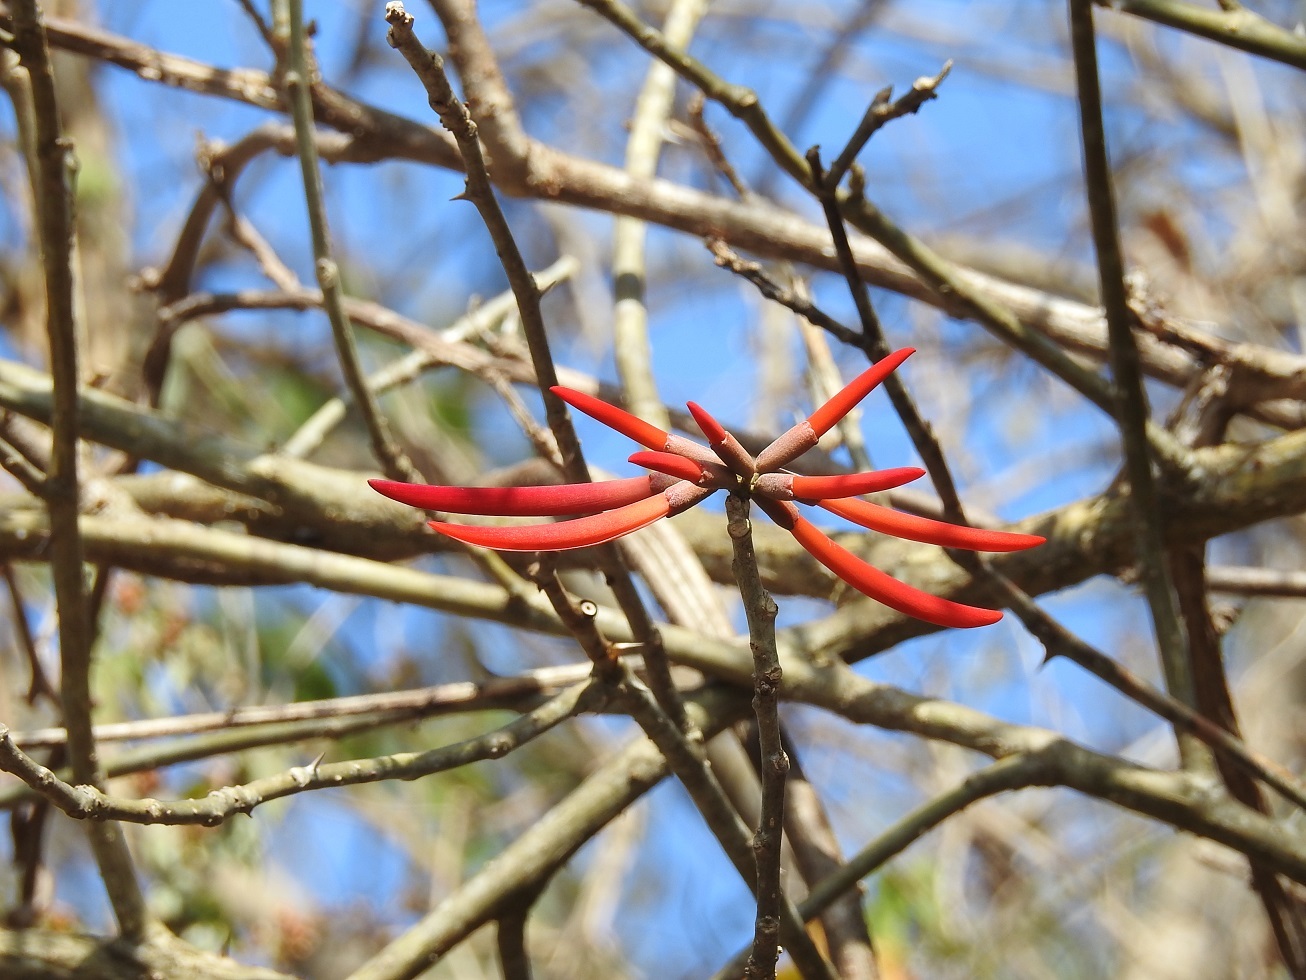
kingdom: Plantae
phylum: Tracheophyta
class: Magnoliopsida
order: Fabales
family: Fabaceae
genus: Erythrina
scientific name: Erythrina goldmanii
